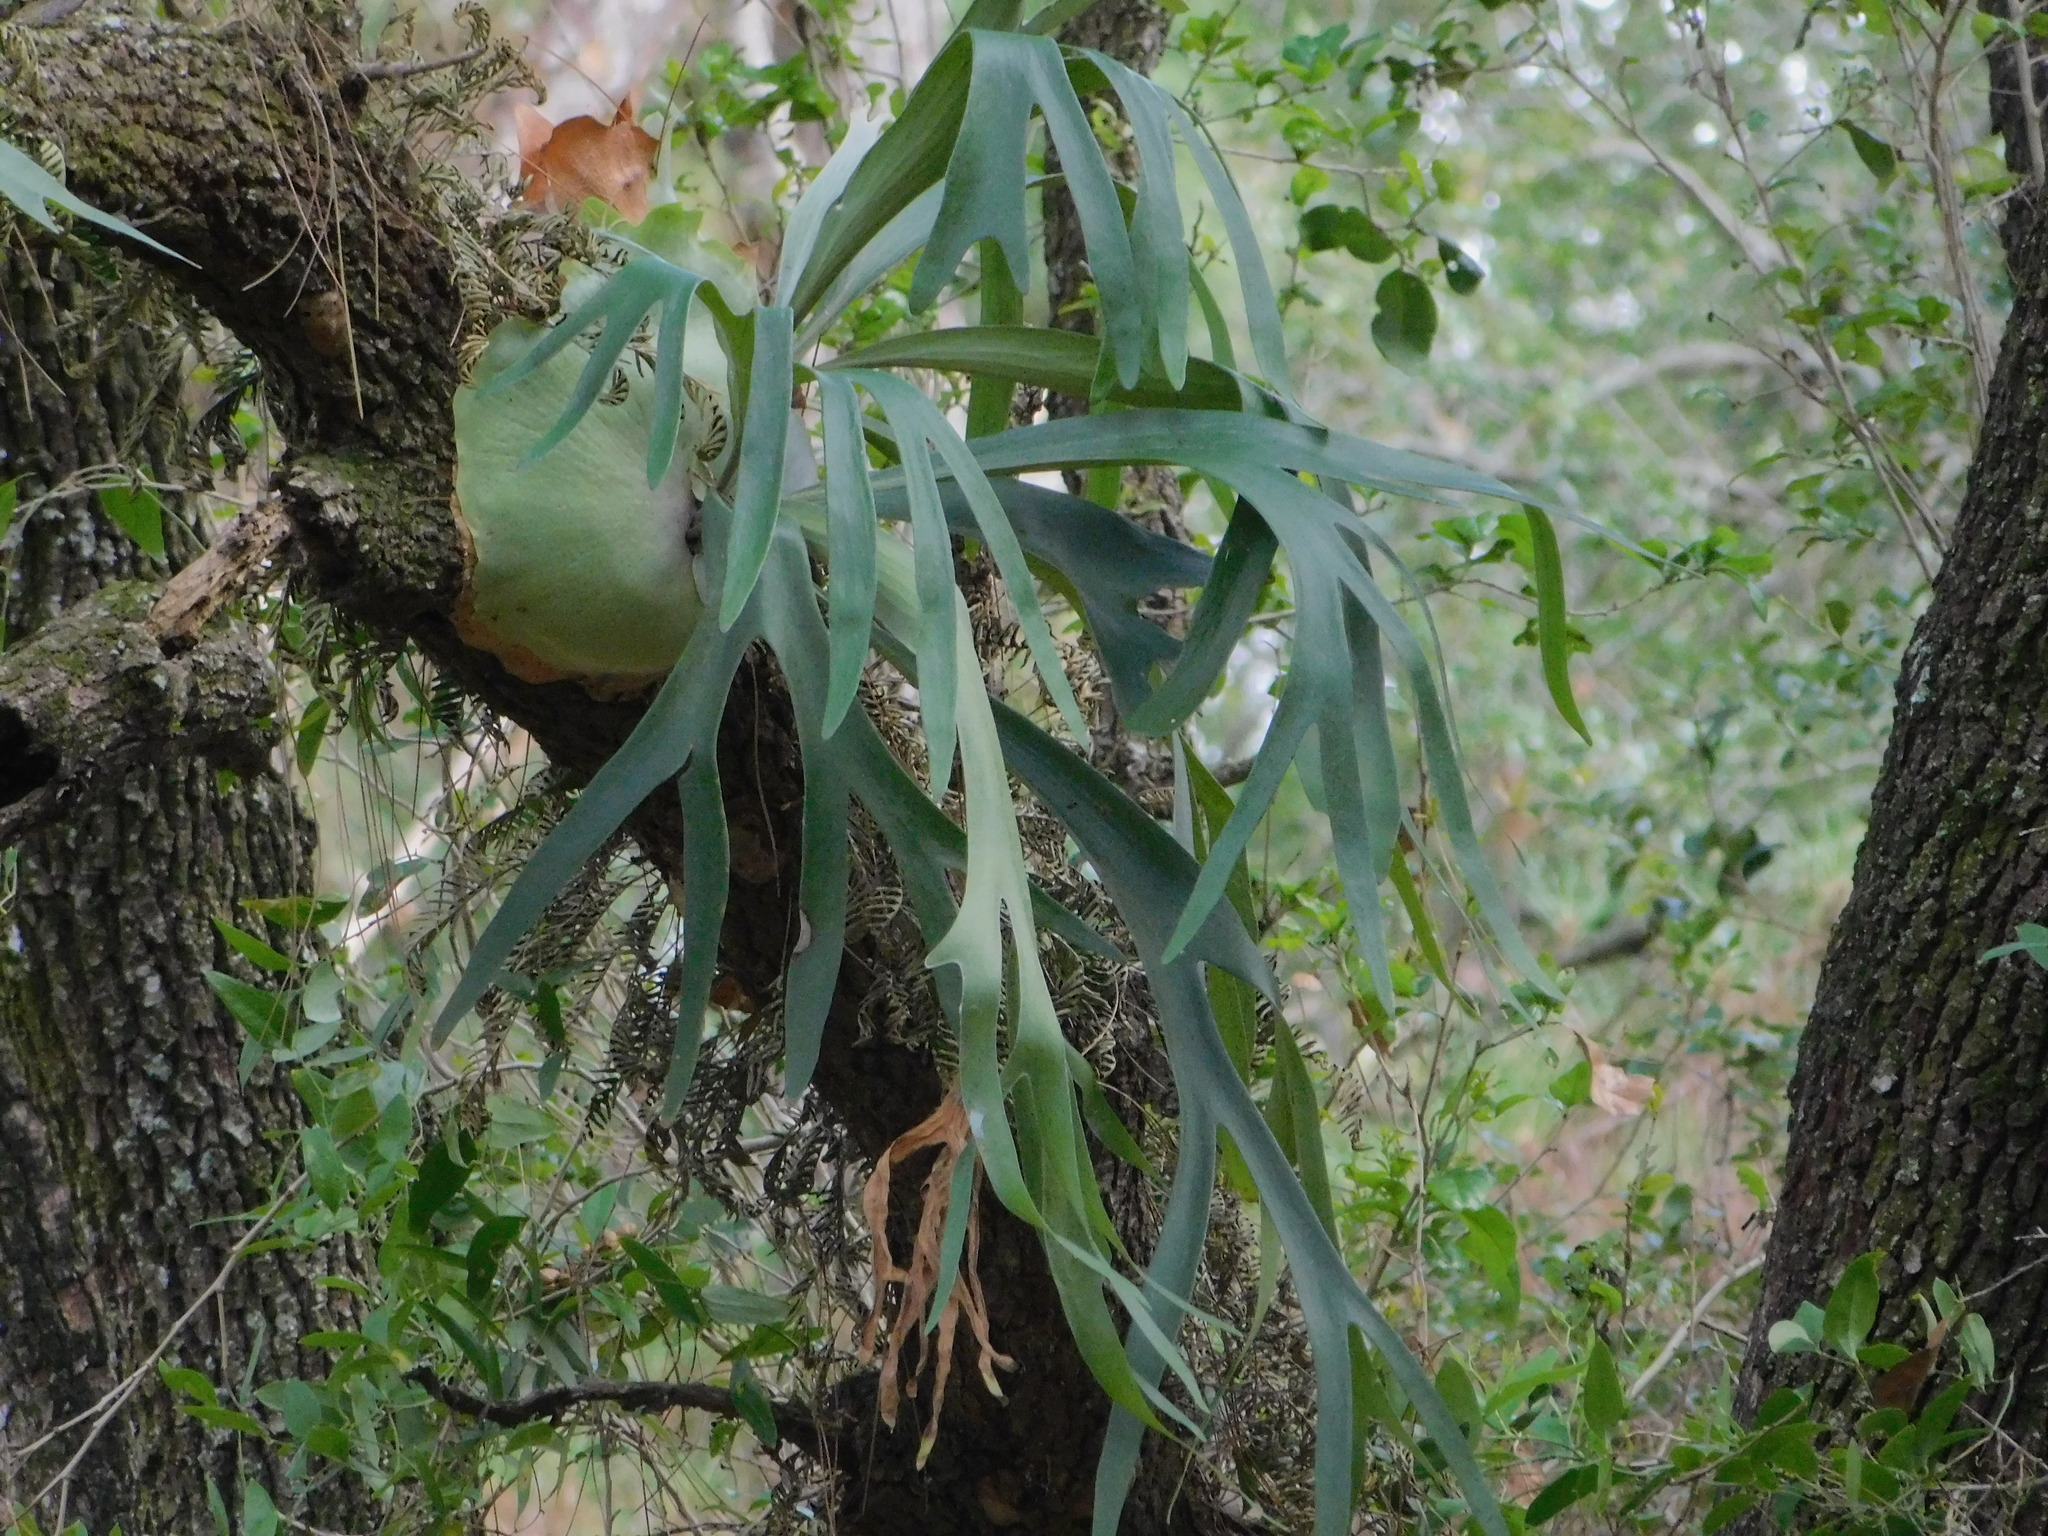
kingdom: Plantae
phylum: Tracheophyta
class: Polypodiopsida
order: Polypodiales
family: Polypodiaceae
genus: Platycerium
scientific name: Platycerium bifurcatum
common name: Elkhorn fern
